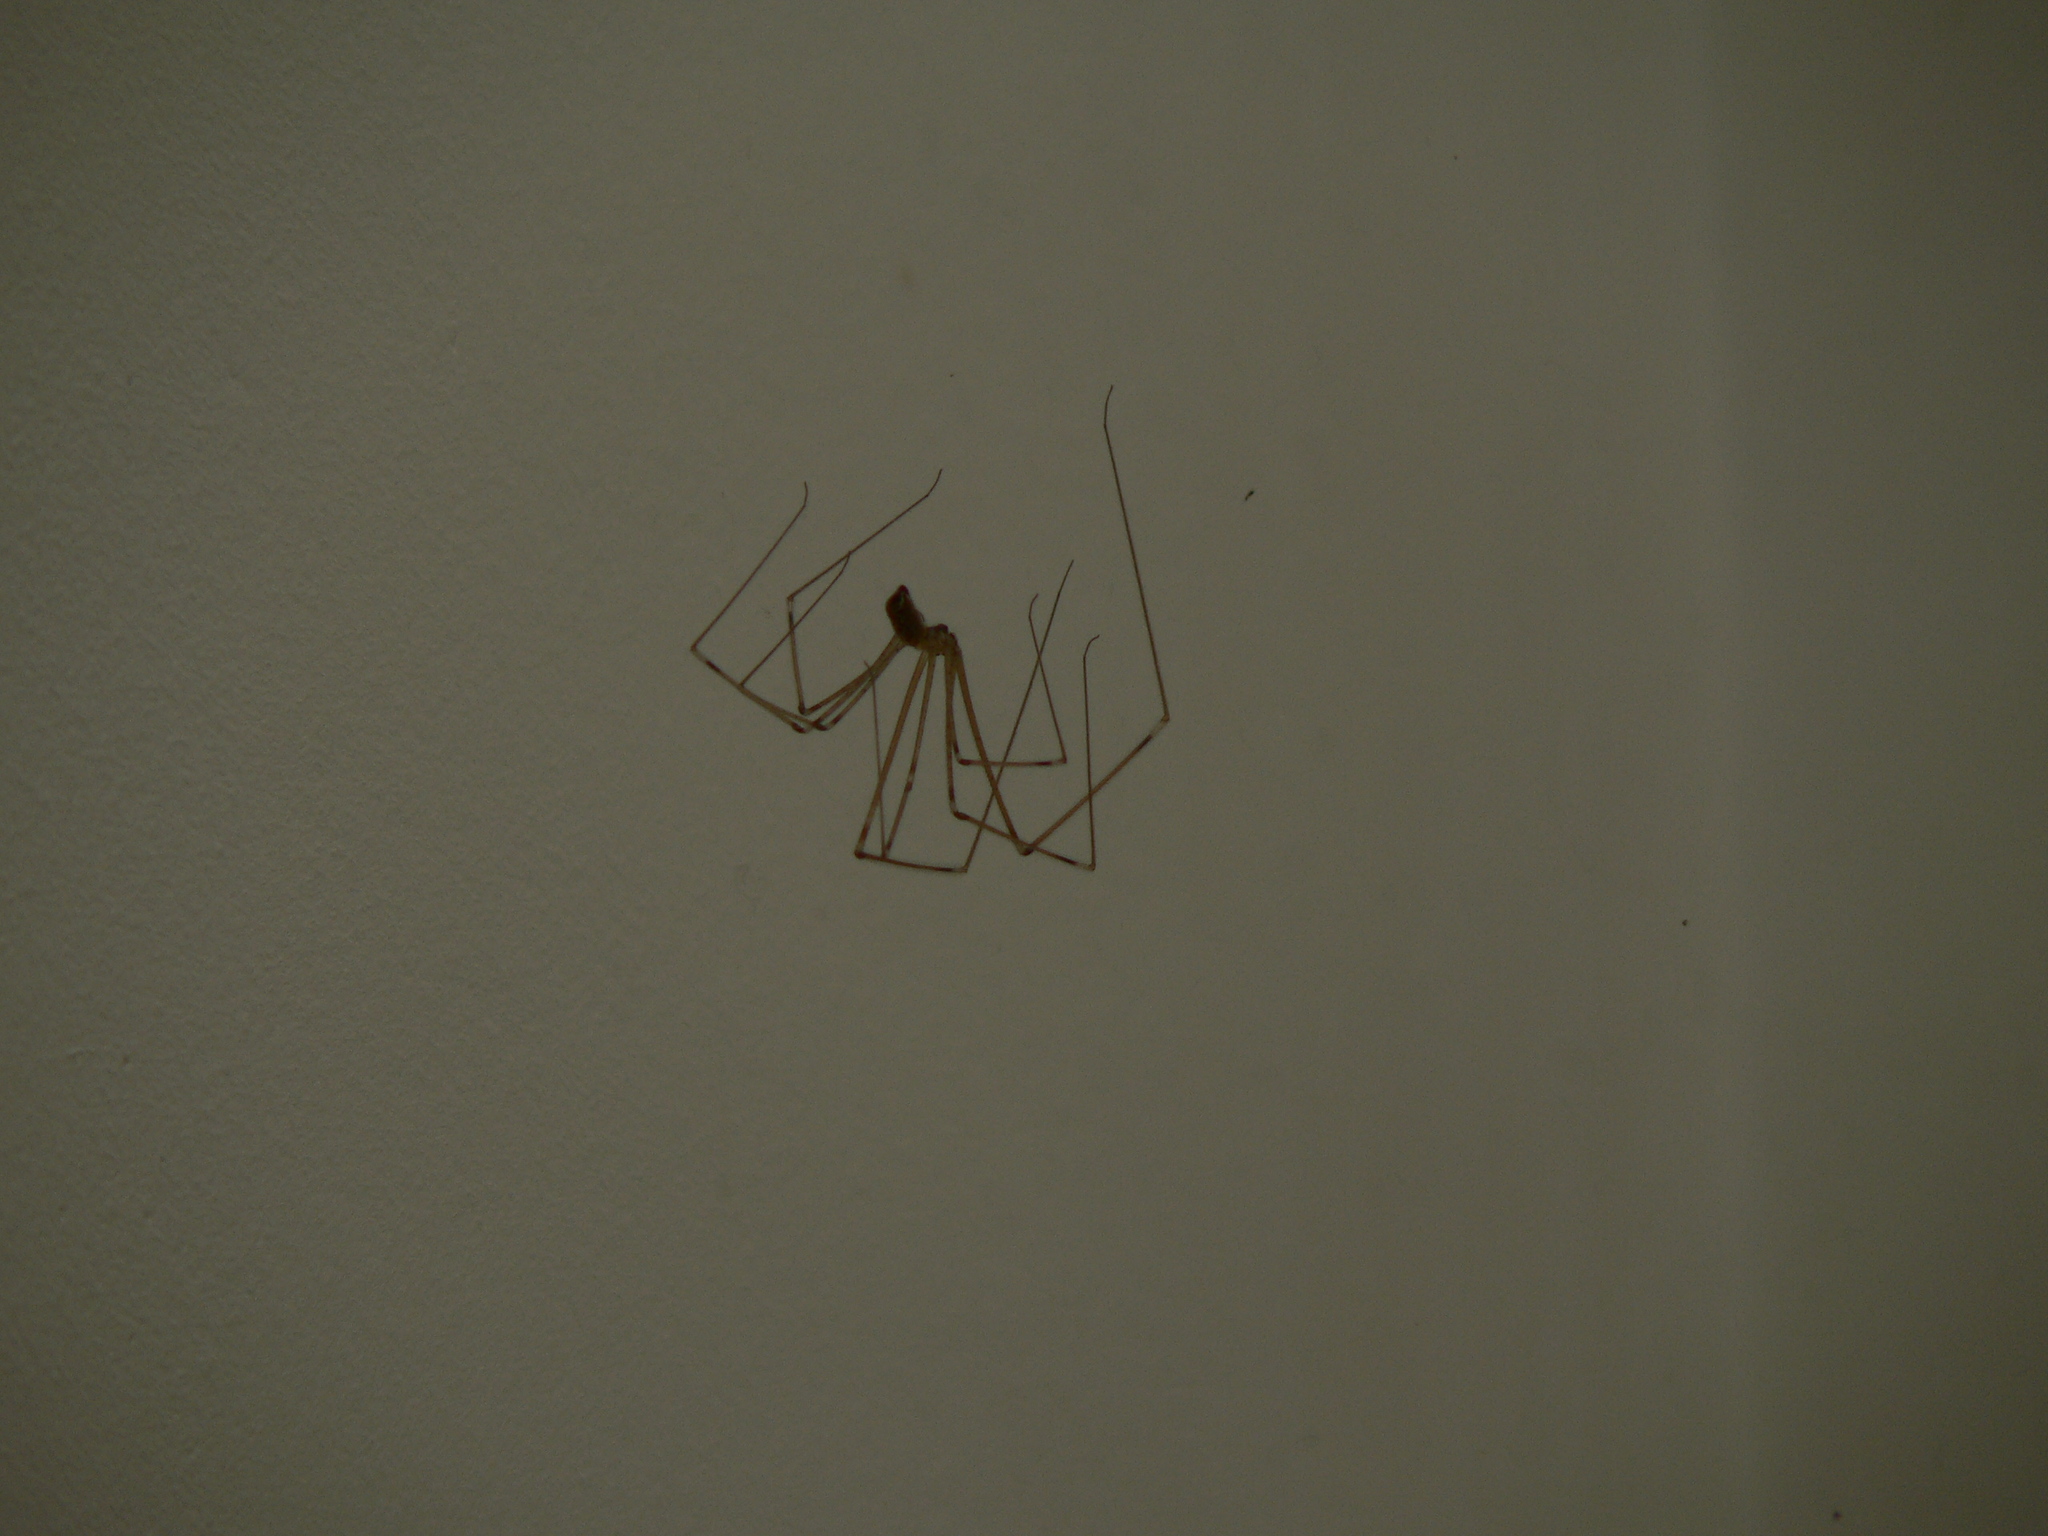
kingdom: Animalia
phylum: Arthropoda
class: Arachnida
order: Araneae
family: Pholcidae
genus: Pholcus
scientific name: Pholcus phalangioides
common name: Longbodied cellar spider
